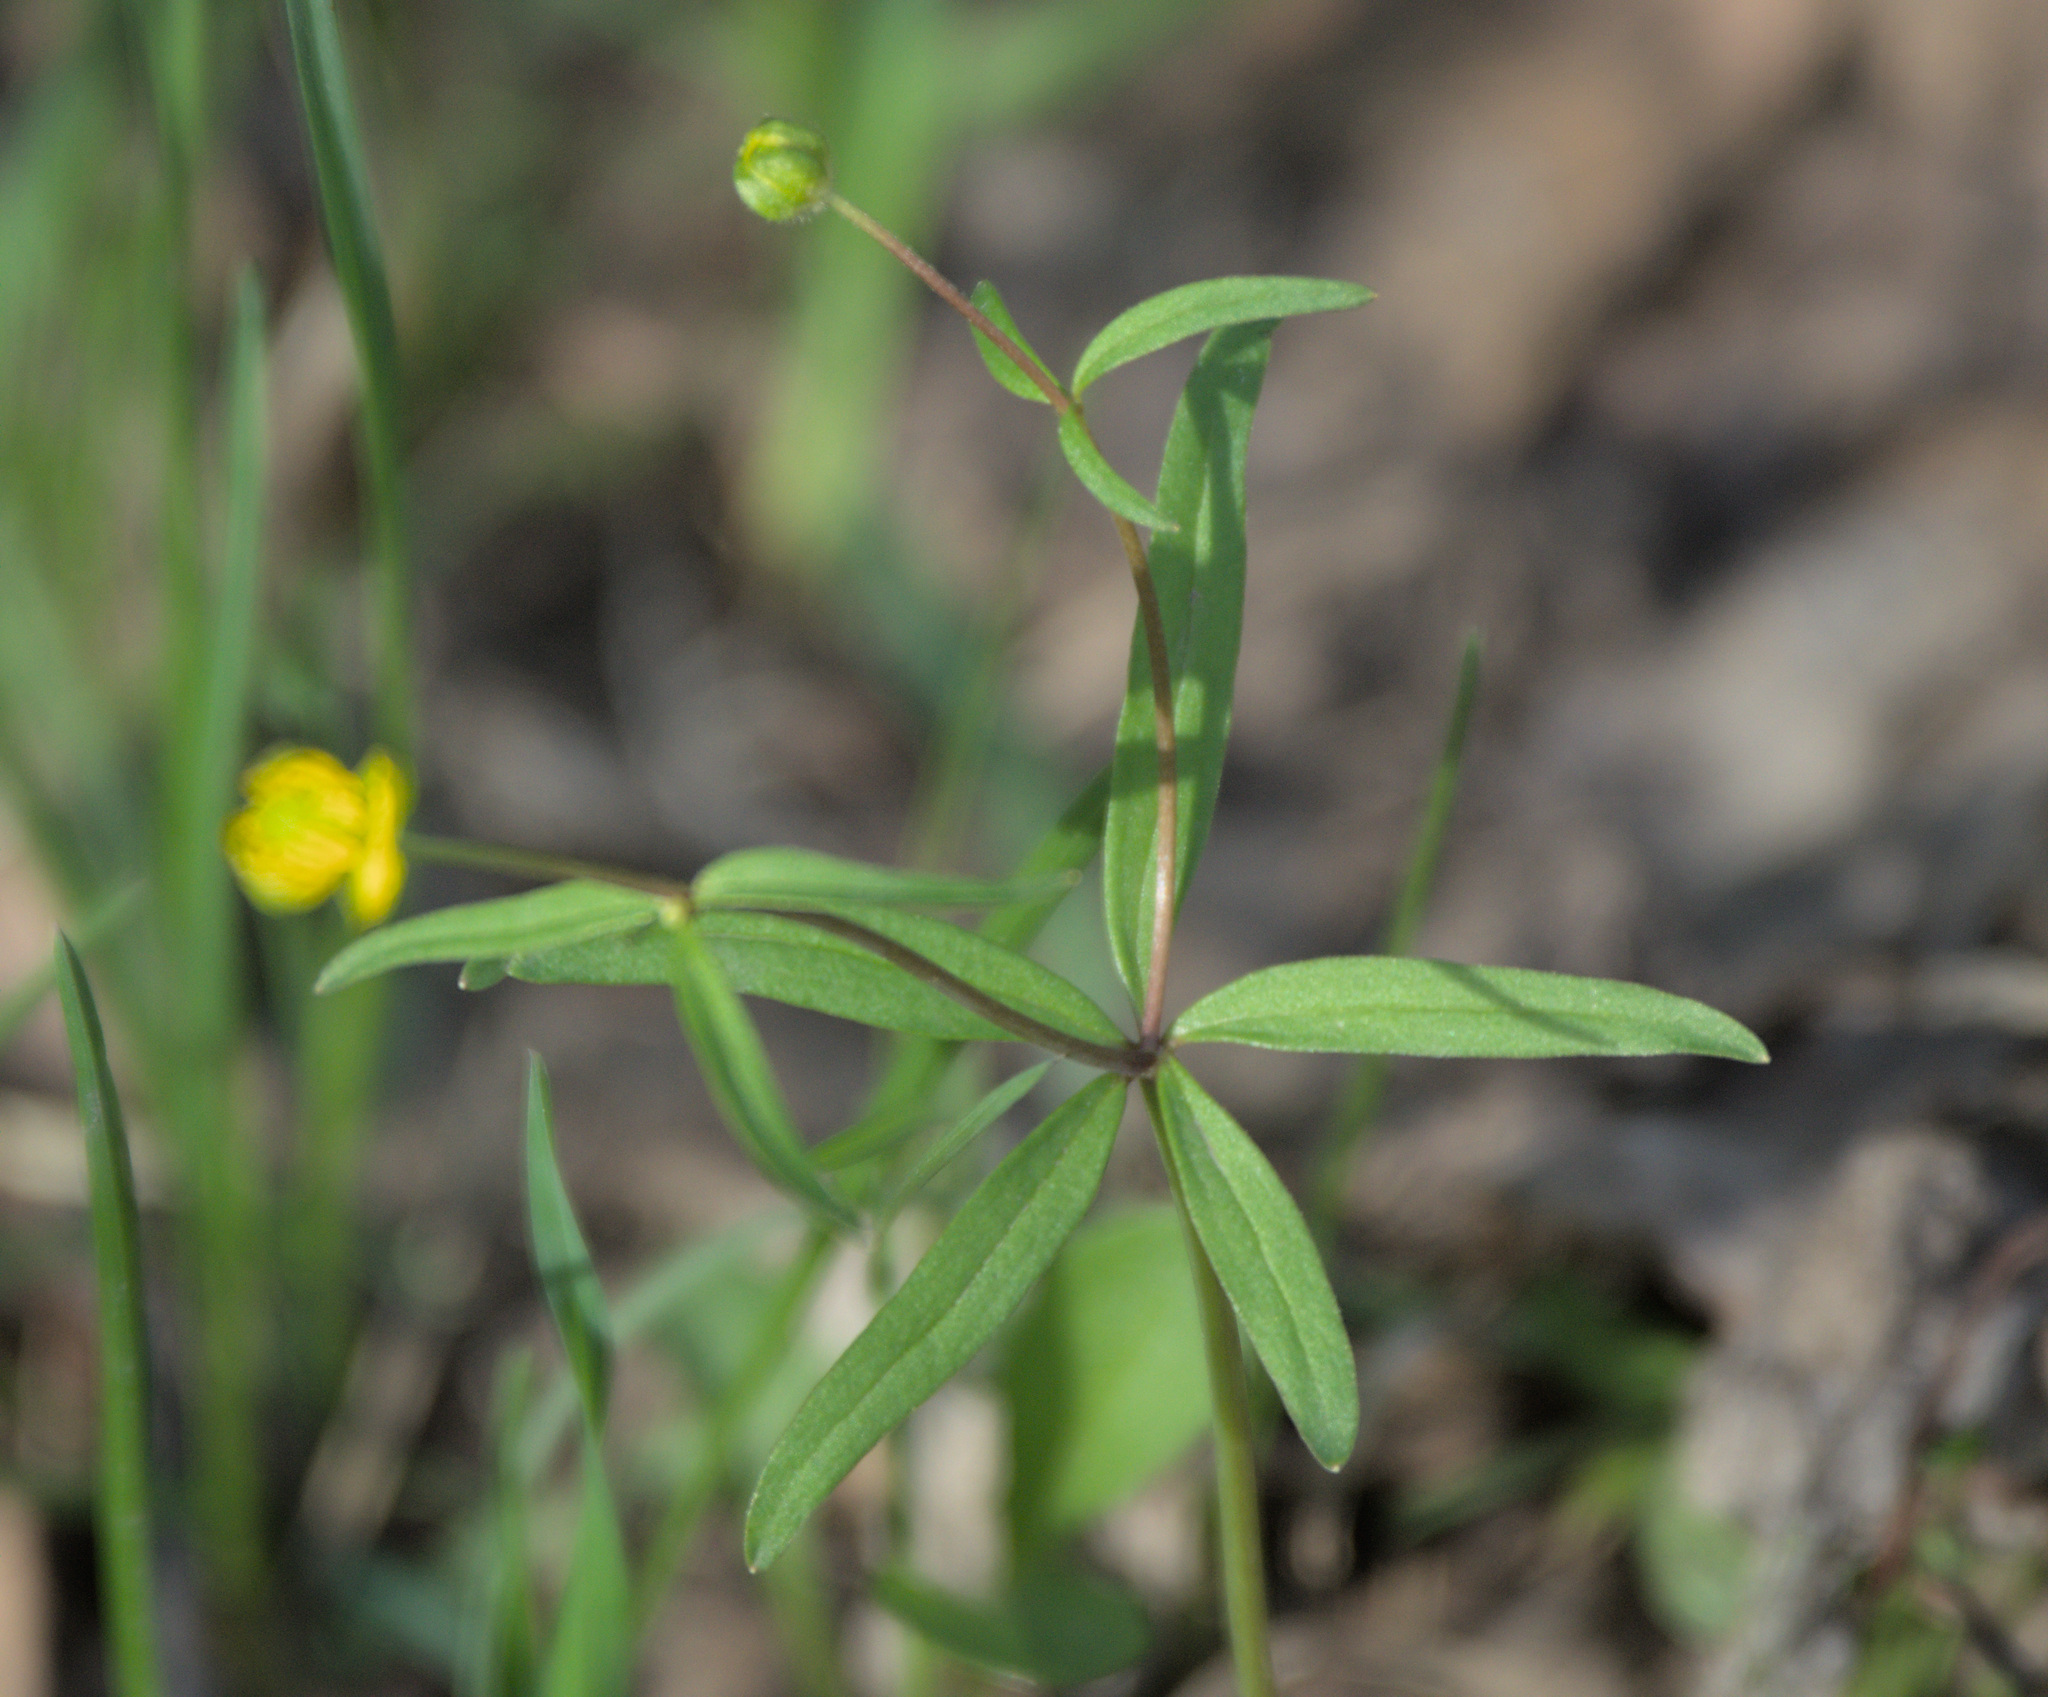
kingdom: Plantae
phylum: Tracheophyta
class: Magnoliopsida
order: Ranunculales
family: Ranunculaceae
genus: Ranunculus
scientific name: Ranunculus monophyllus
